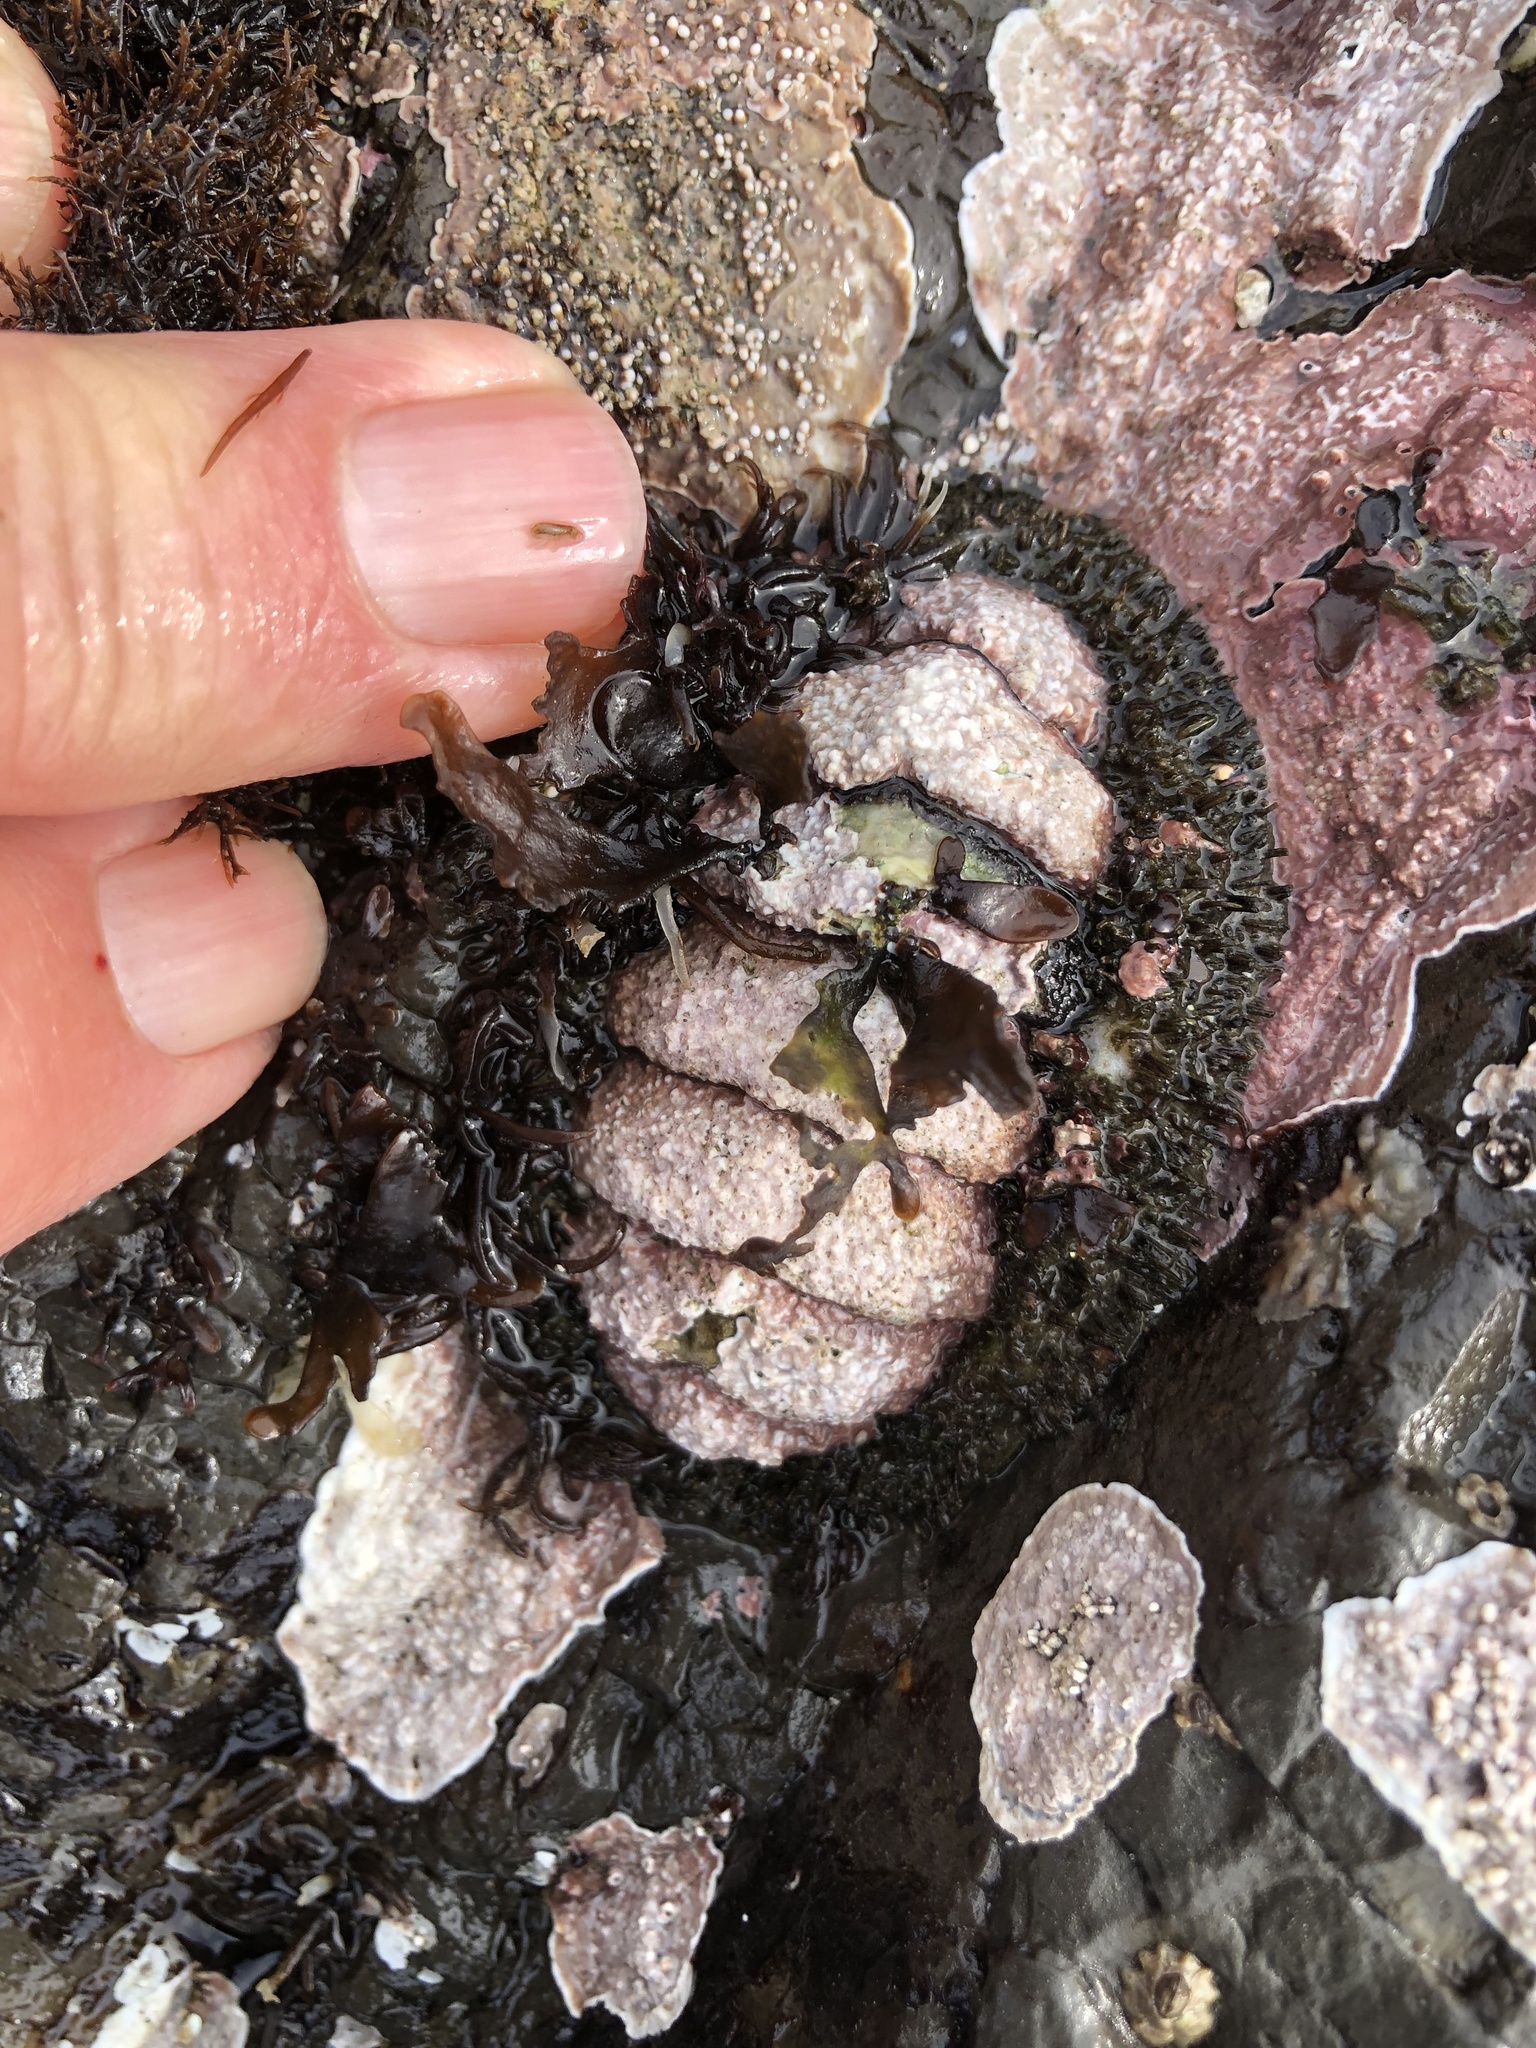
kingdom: Animalia
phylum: Mollusca
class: Polyplacophora
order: Chitonida
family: Mopaliidae
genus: Mopalia
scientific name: Mopalia muscosa
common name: Mossy chiton
